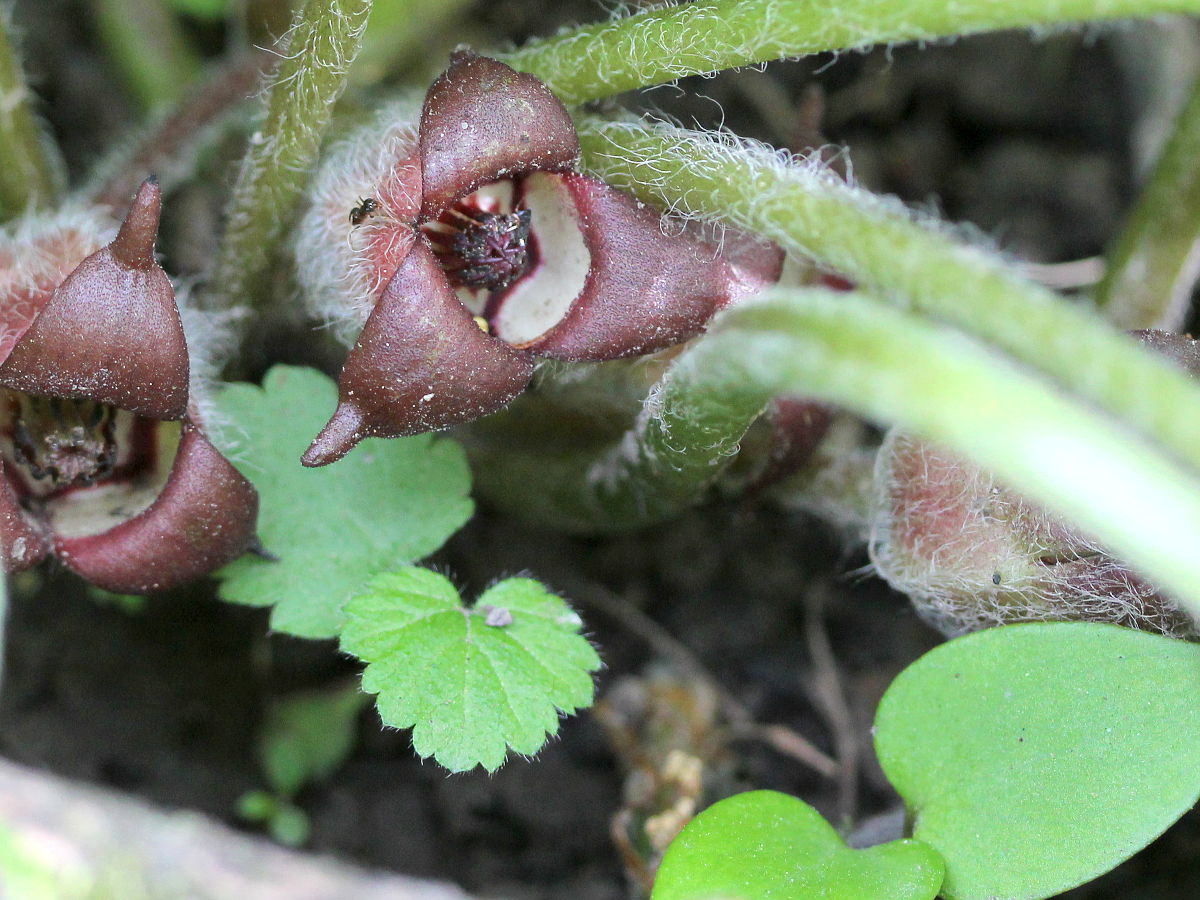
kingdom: Plantae
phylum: Tracheophyta
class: Magnoliopsida
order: Piperales
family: Aristolochiaceae
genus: Asarum
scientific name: Asarum canadense
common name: Wild ginger
